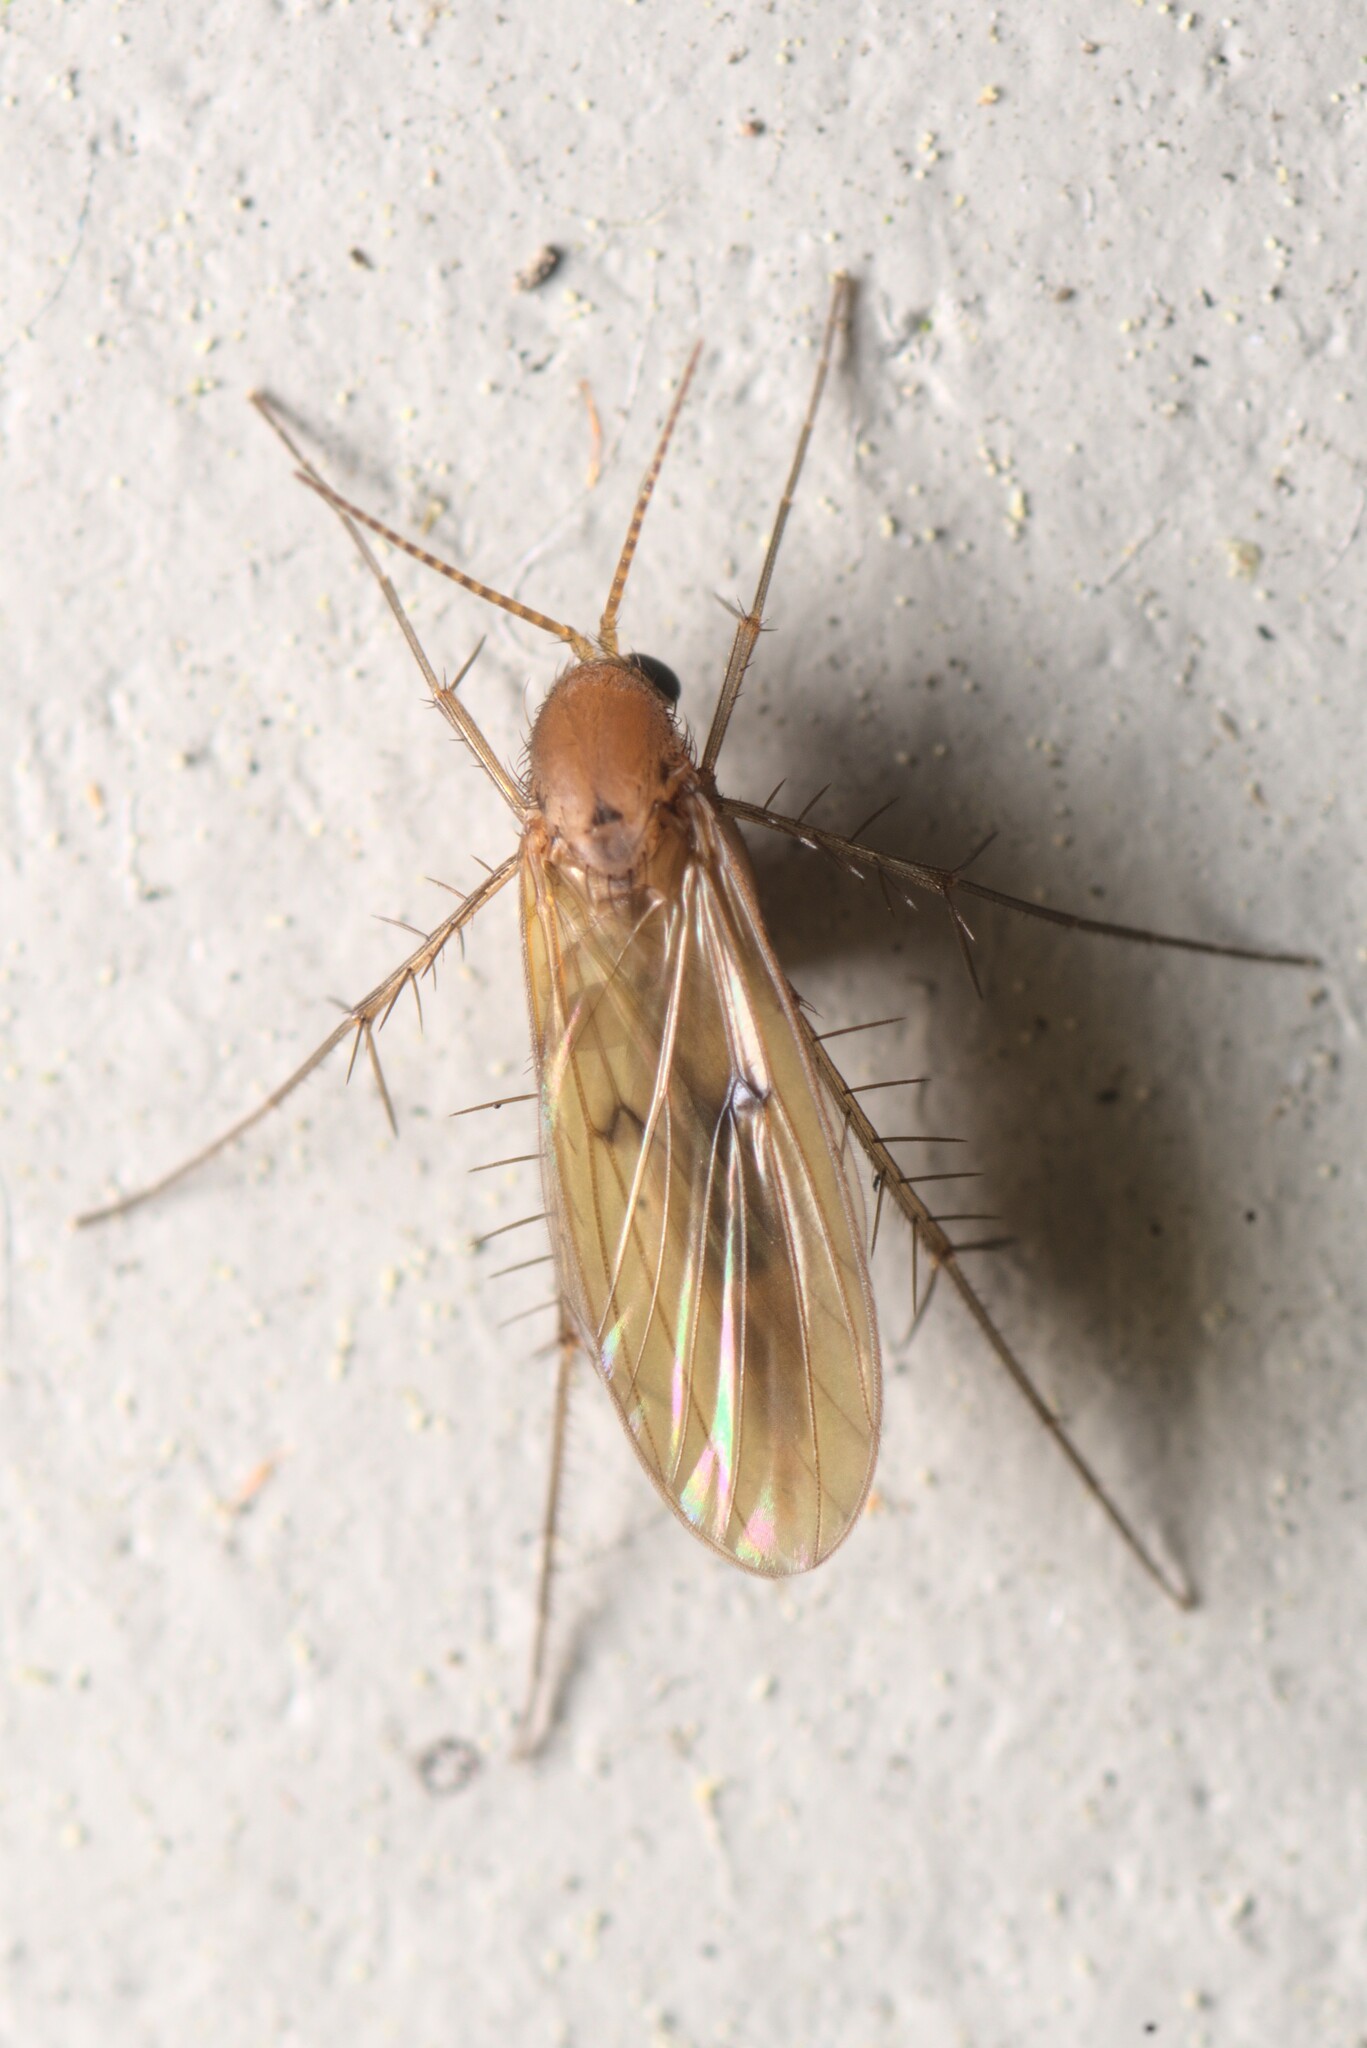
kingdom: Animalia
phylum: Arthropoda
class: Insecta
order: Diptera
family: Mycetophilidae
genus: Mycetophila
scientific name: Mycetophila fagi
